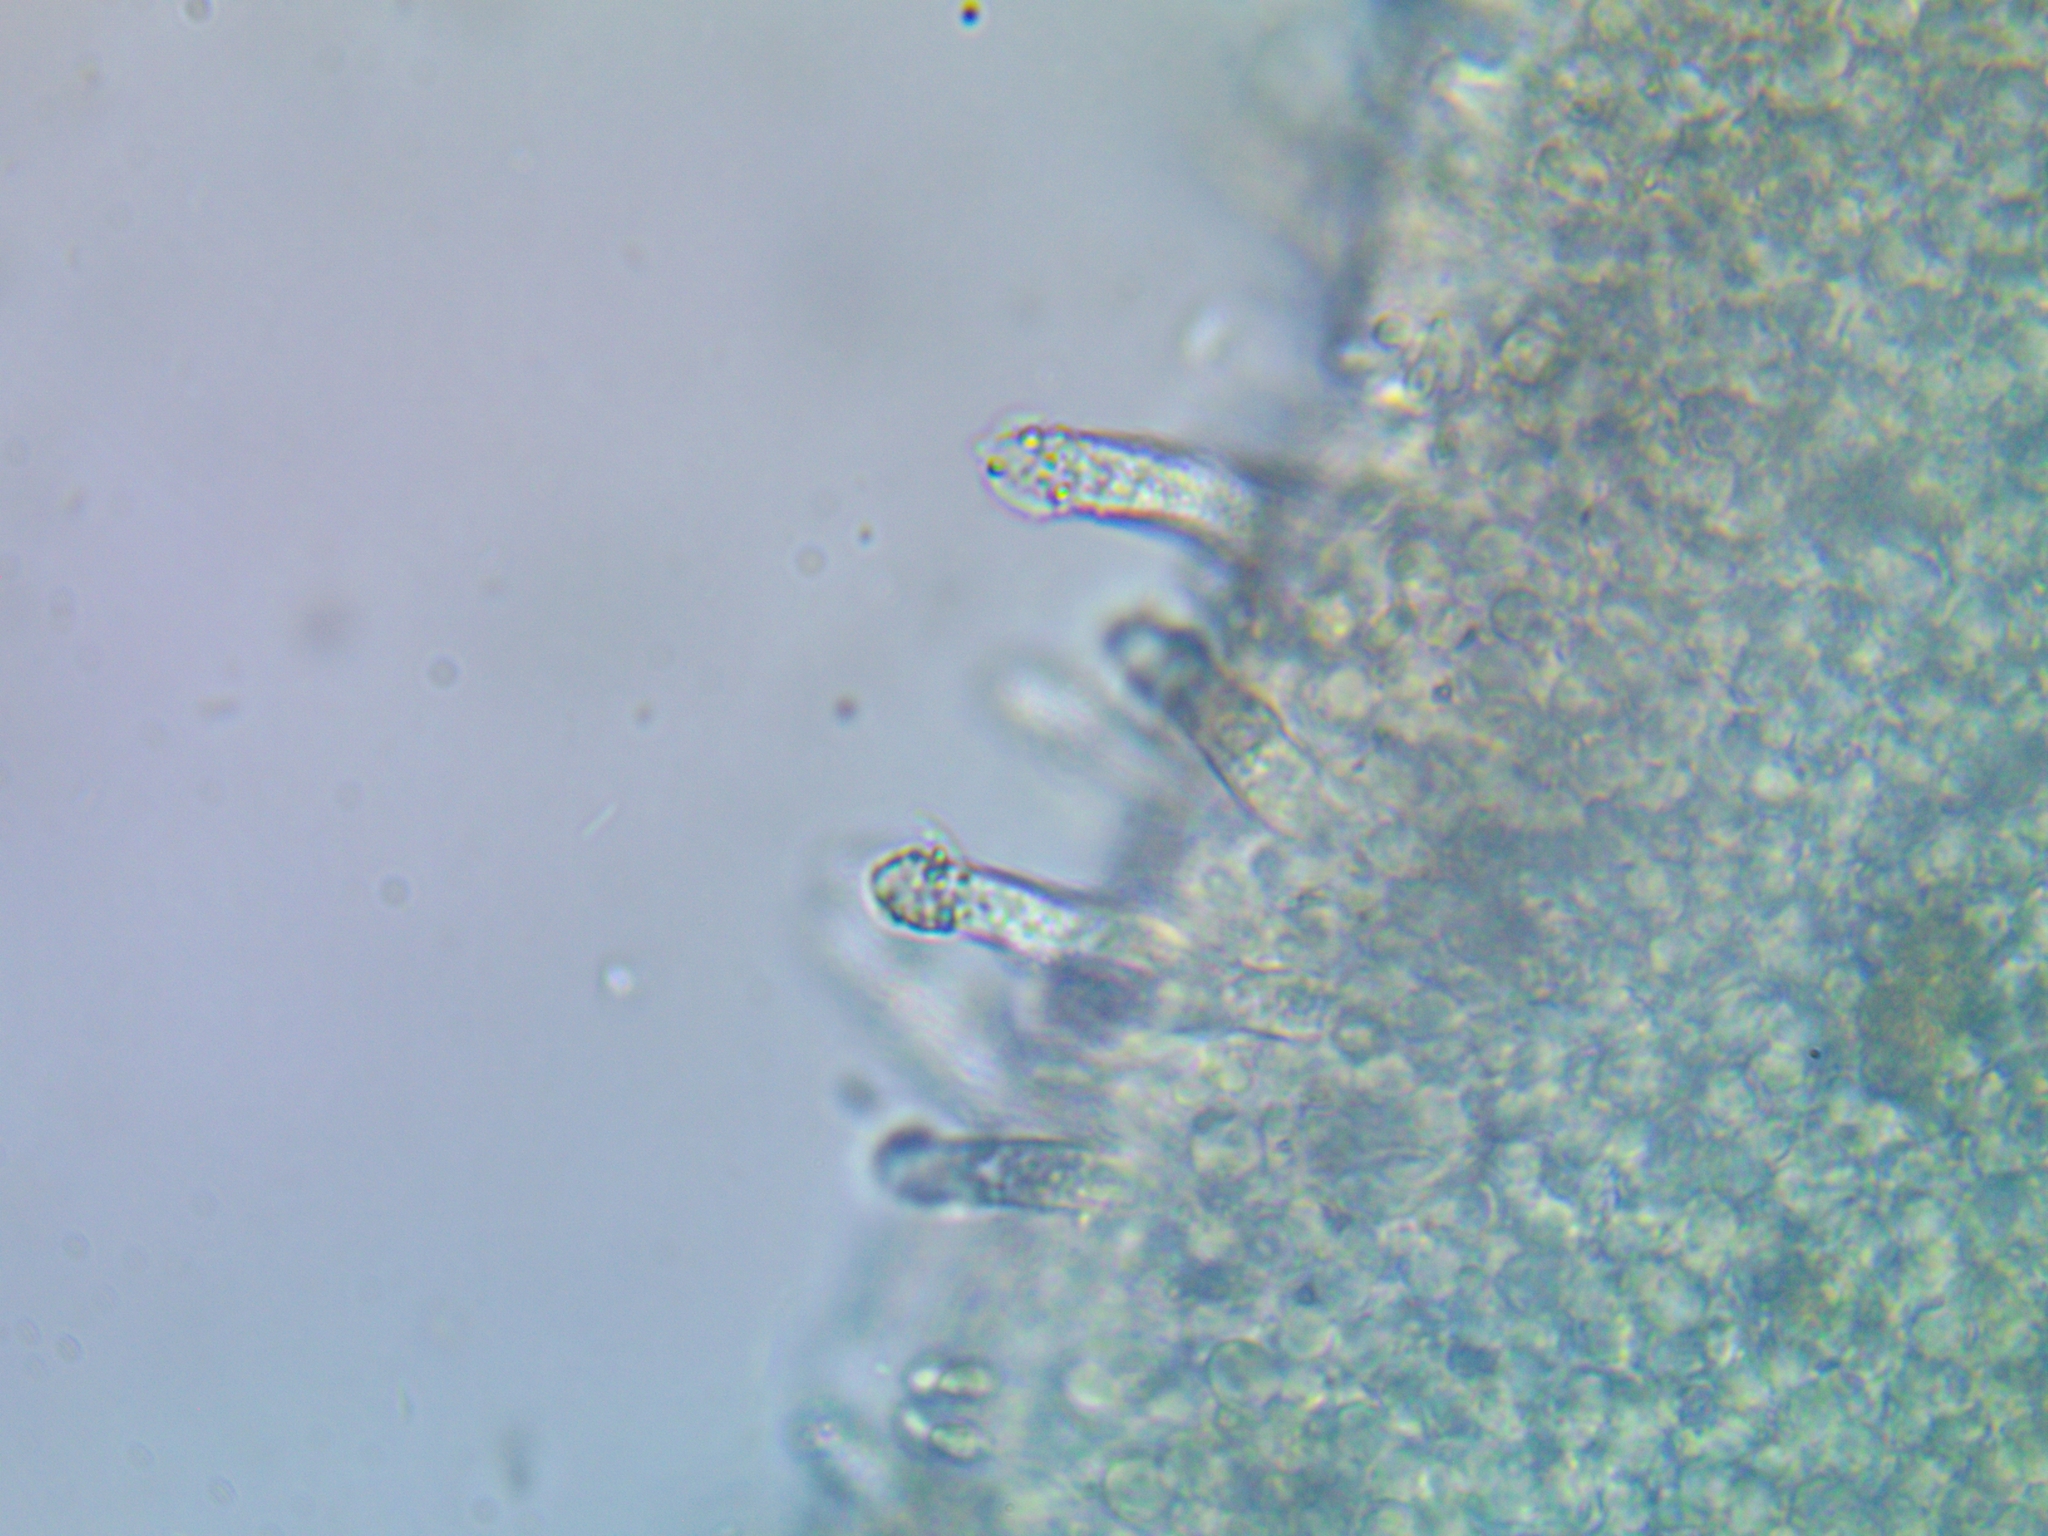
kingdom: Fungi
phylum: Basidiomycota
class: Agaricomycetes
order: Agaricales
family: Physalacriaceae
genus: Strobilurus
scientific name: Strobilurus stephanocystis
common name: Russian conecap
